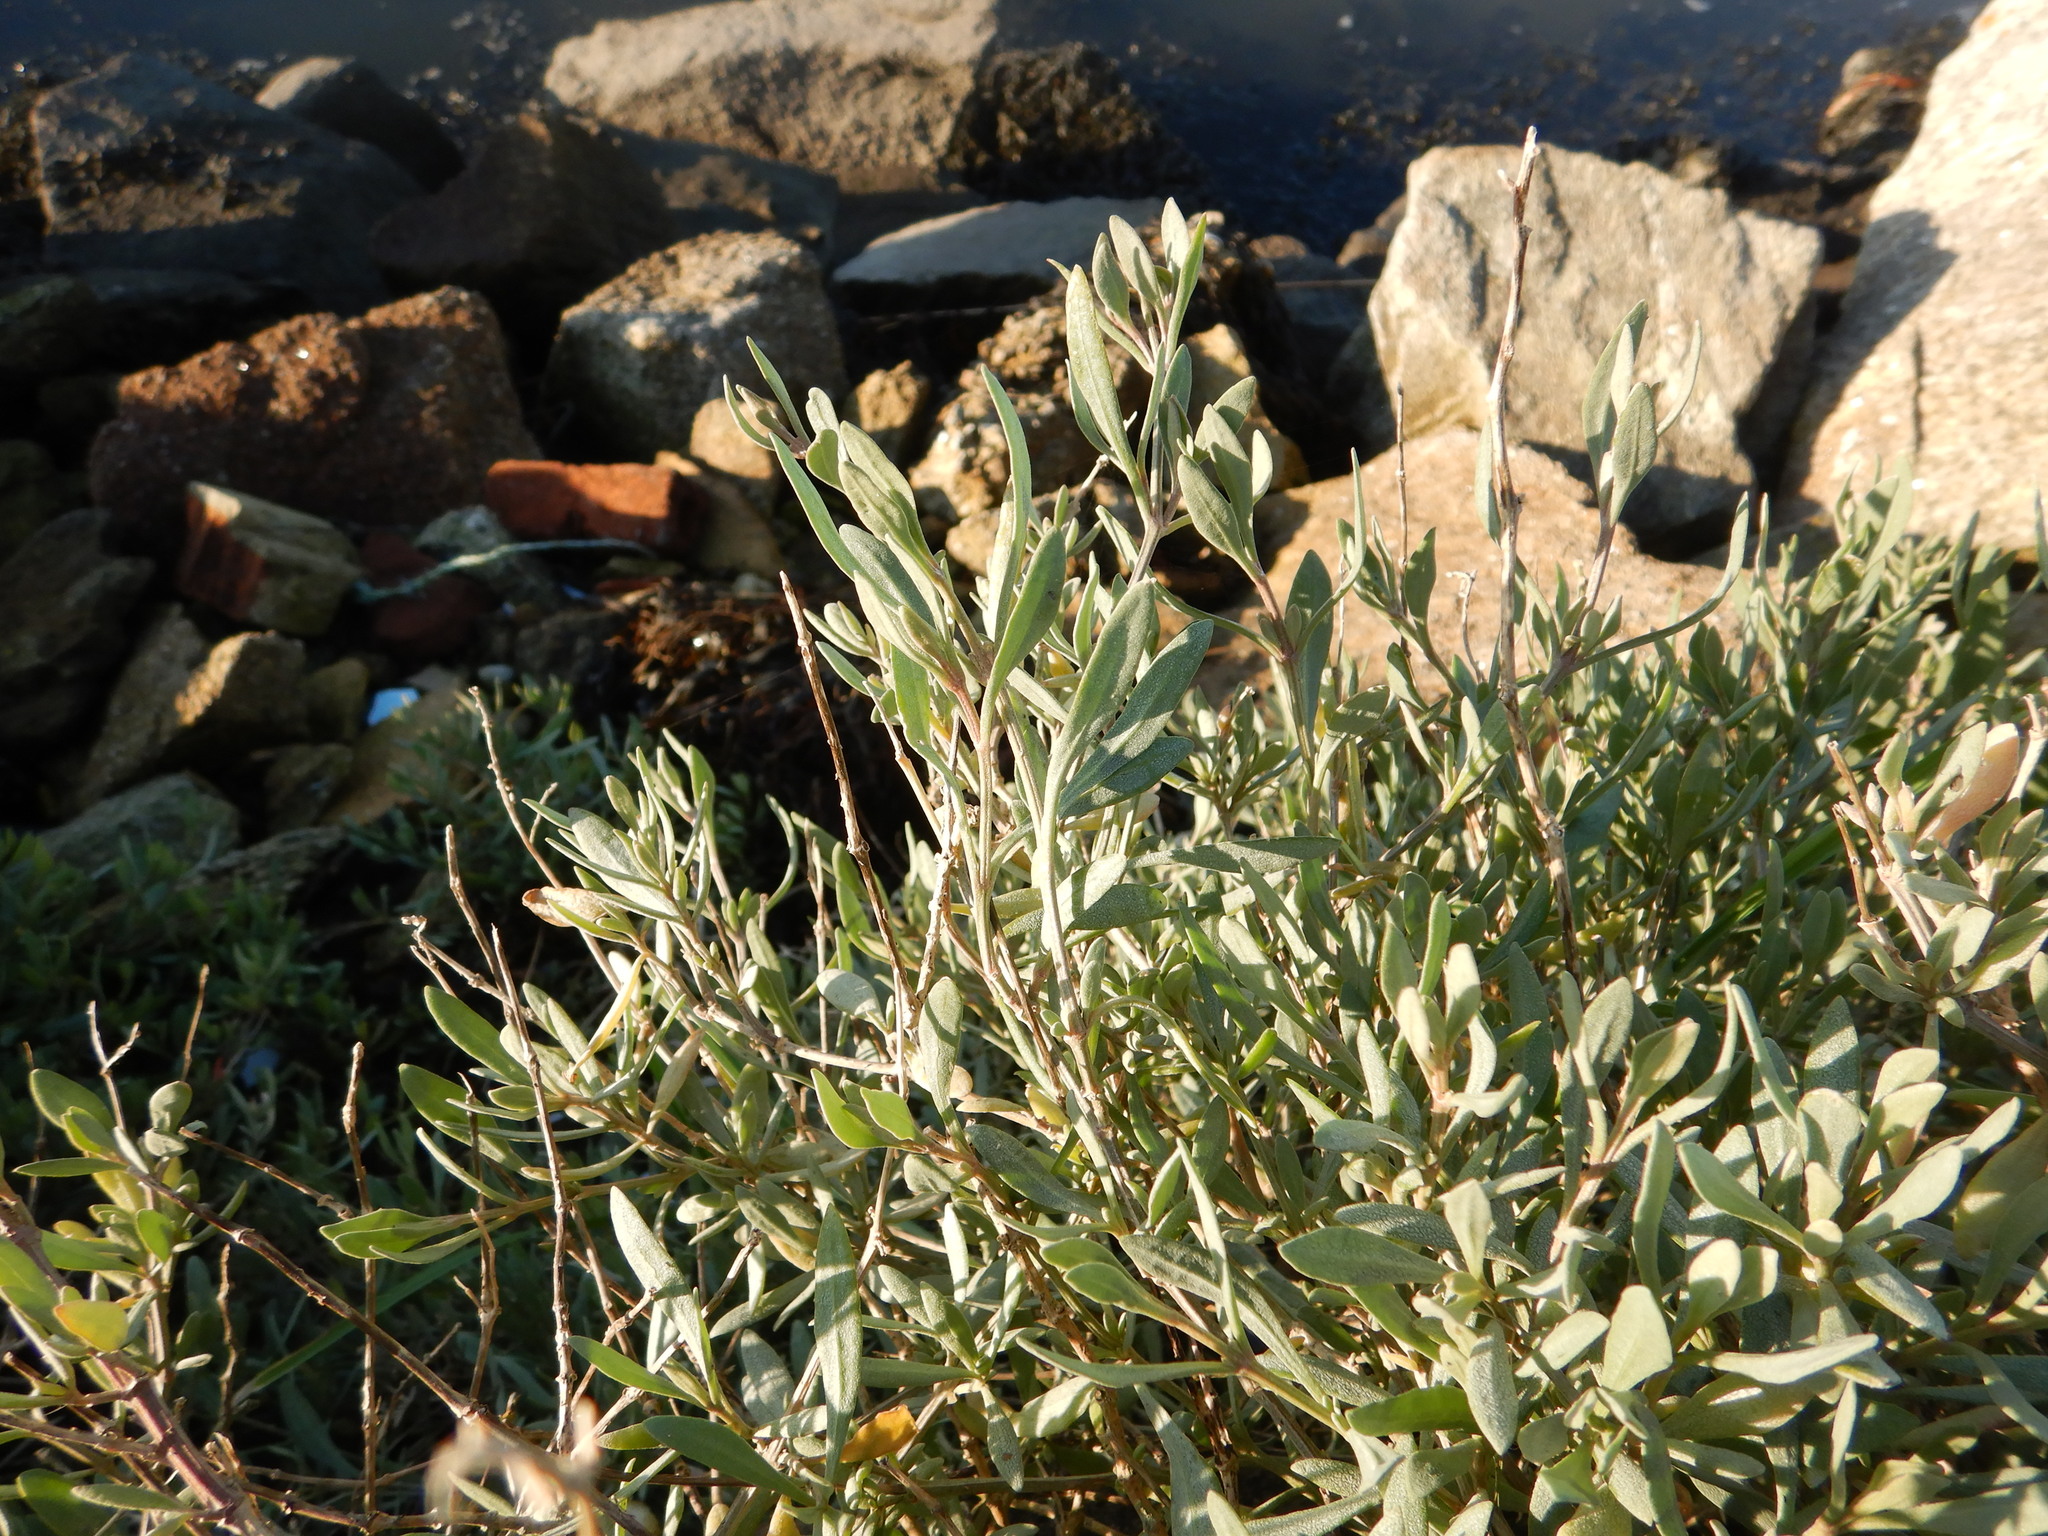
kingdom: Plantae
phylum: Tracheophyta
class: Magnoliopsida
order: Caryophyllales
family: Amaranthaceae
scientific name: Amaranthaceae
